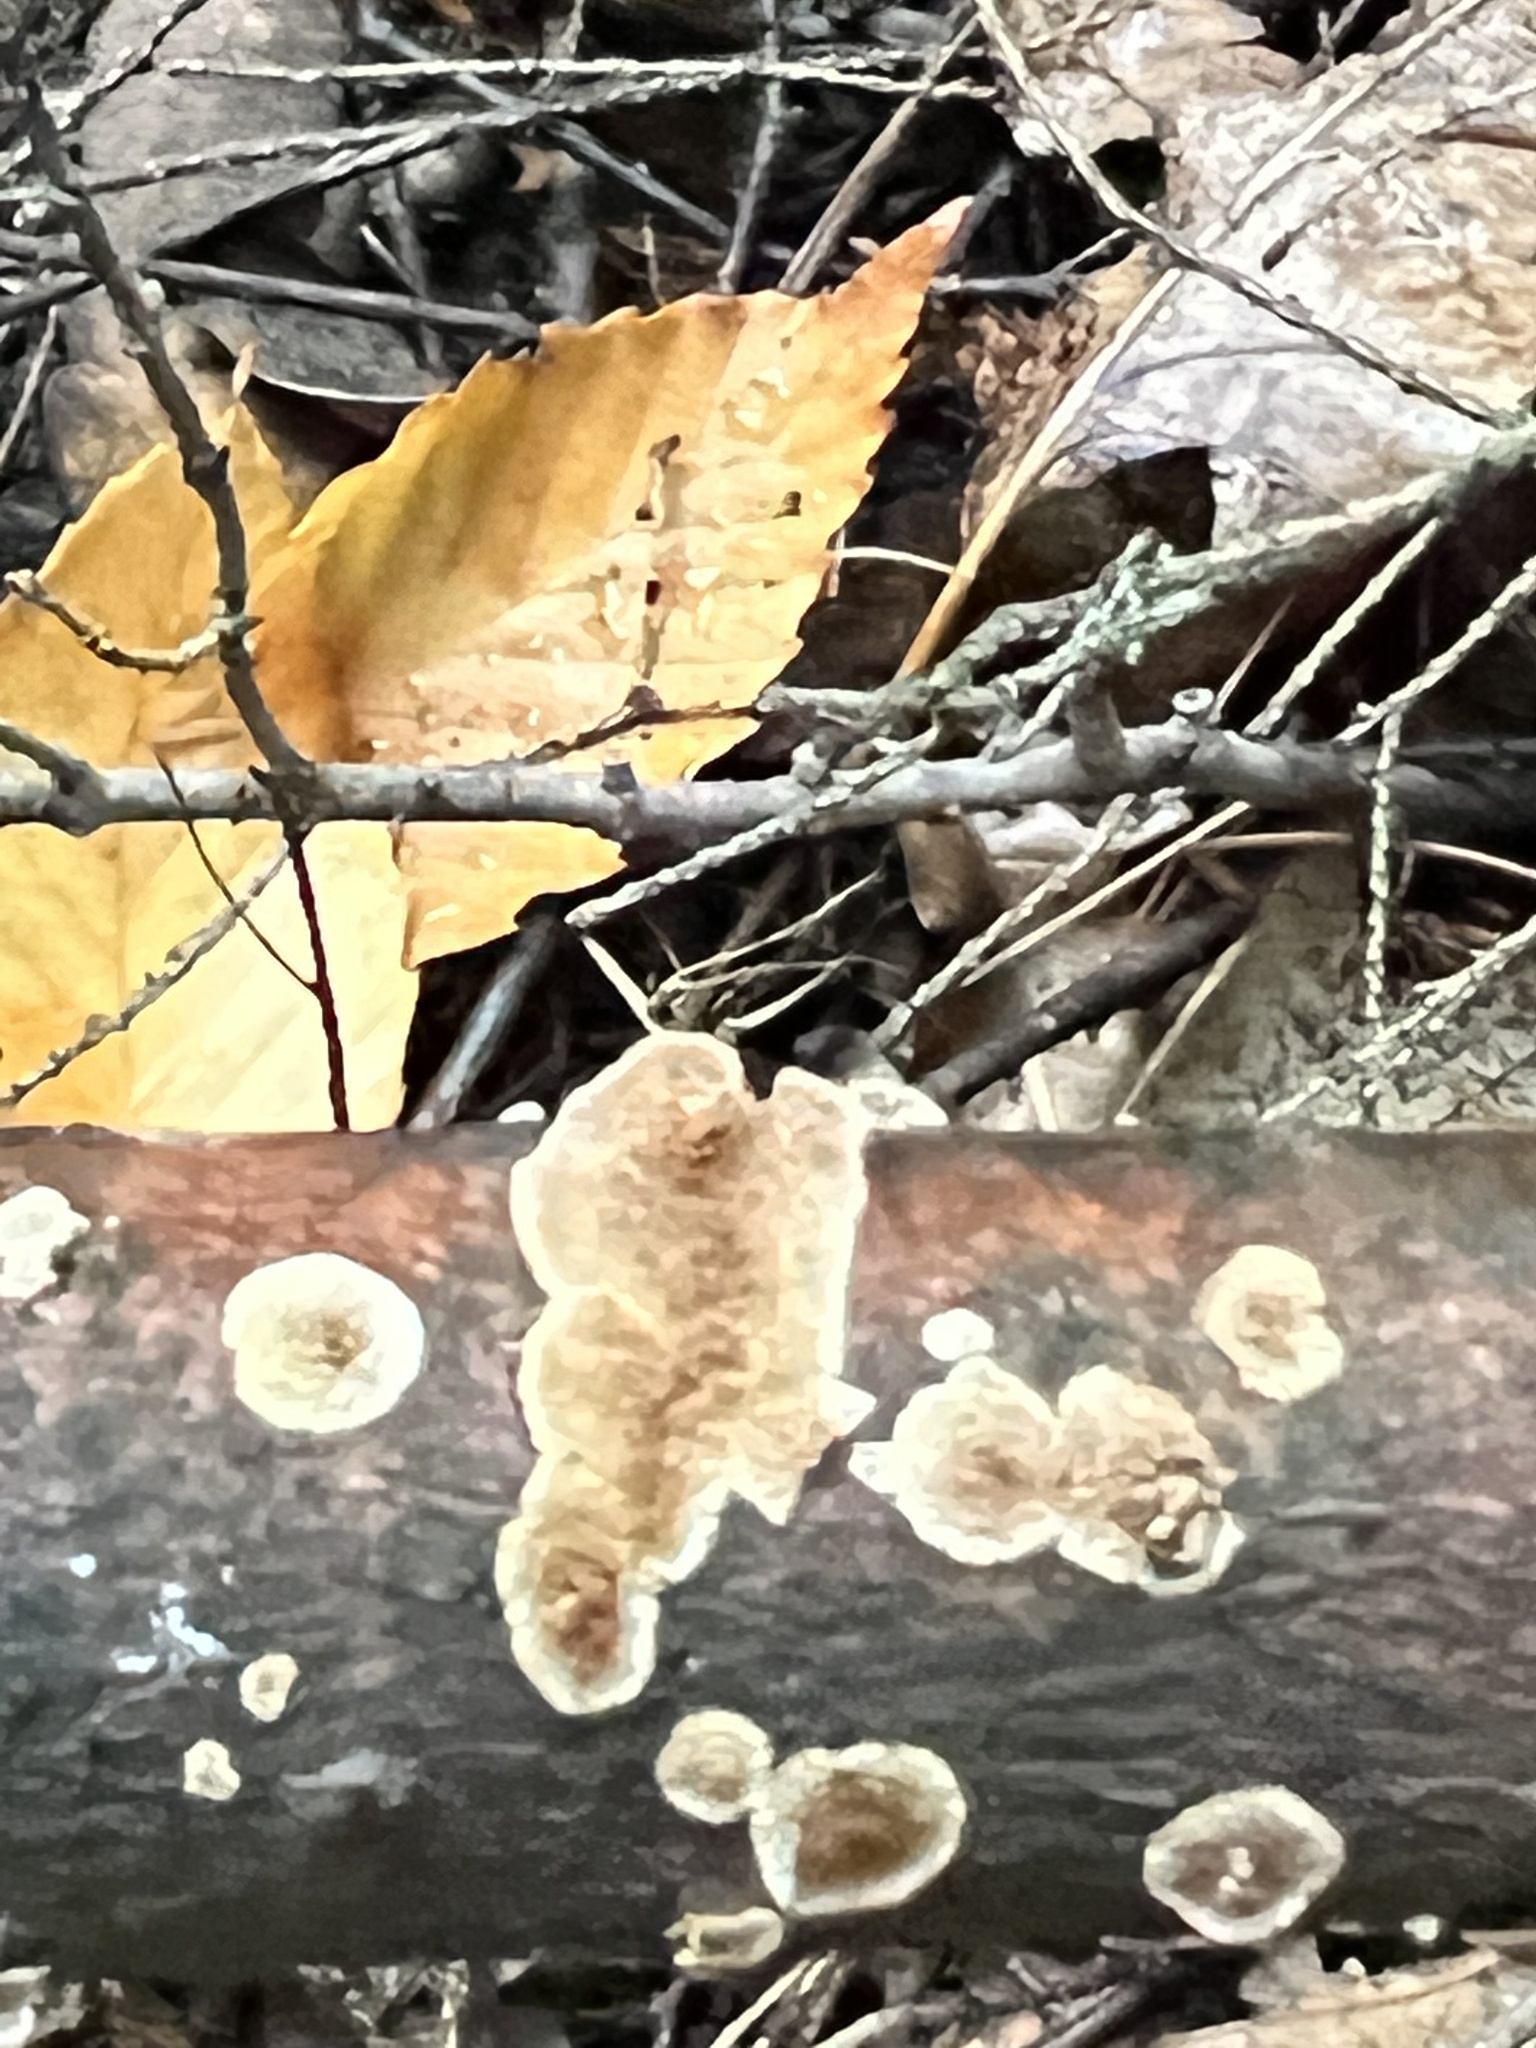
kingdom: Fungi
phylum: Basidiomycota
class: Agaricomycetes
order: Russulales
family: Peniophoraceae
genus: Peniophora
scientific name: Peniophora albobadia
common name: Giraffe spots
